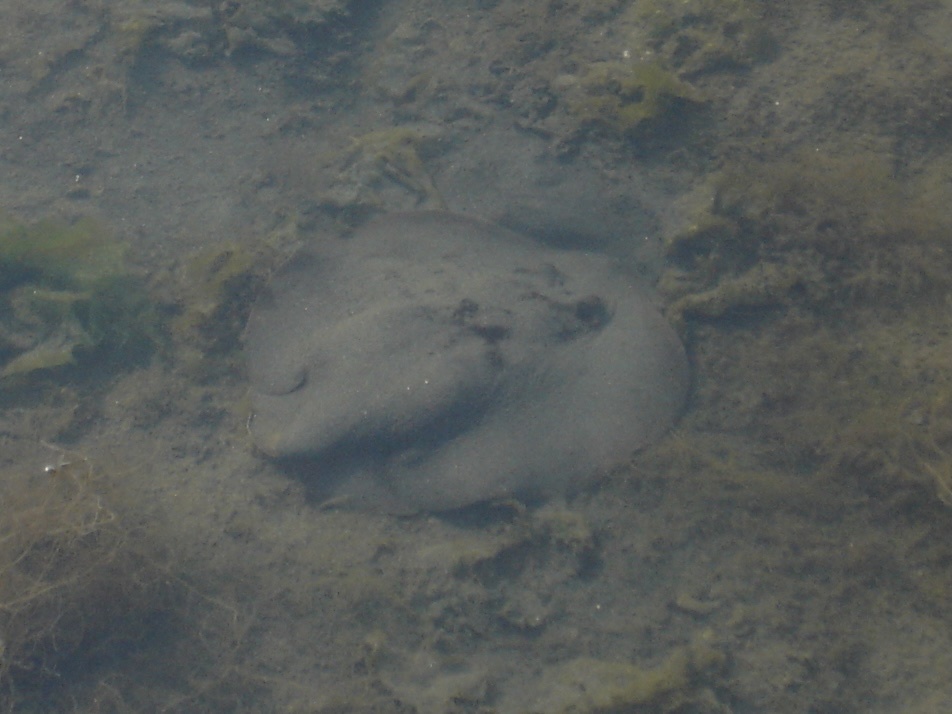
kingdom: Animalia
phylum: Chordata
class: Elasmobranchii
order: Myliobatiformes
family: Urolophidae
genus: Urolophus
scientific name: Urolophus halleri
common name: Round stingray
